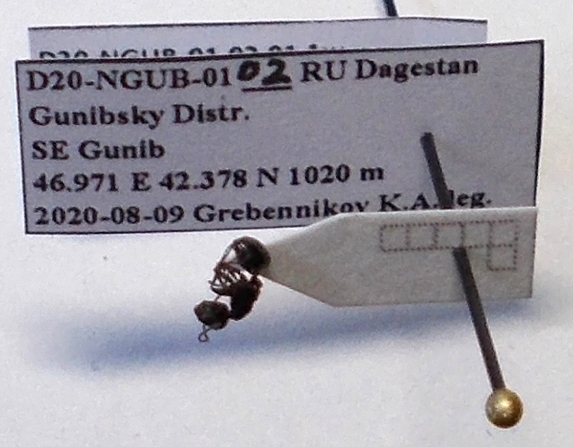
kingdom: Animalia
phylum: Arthropoda
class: Insecta
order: Hymenoptera
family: Formicidae
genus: Camponotus
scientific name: Camponotus piceus
